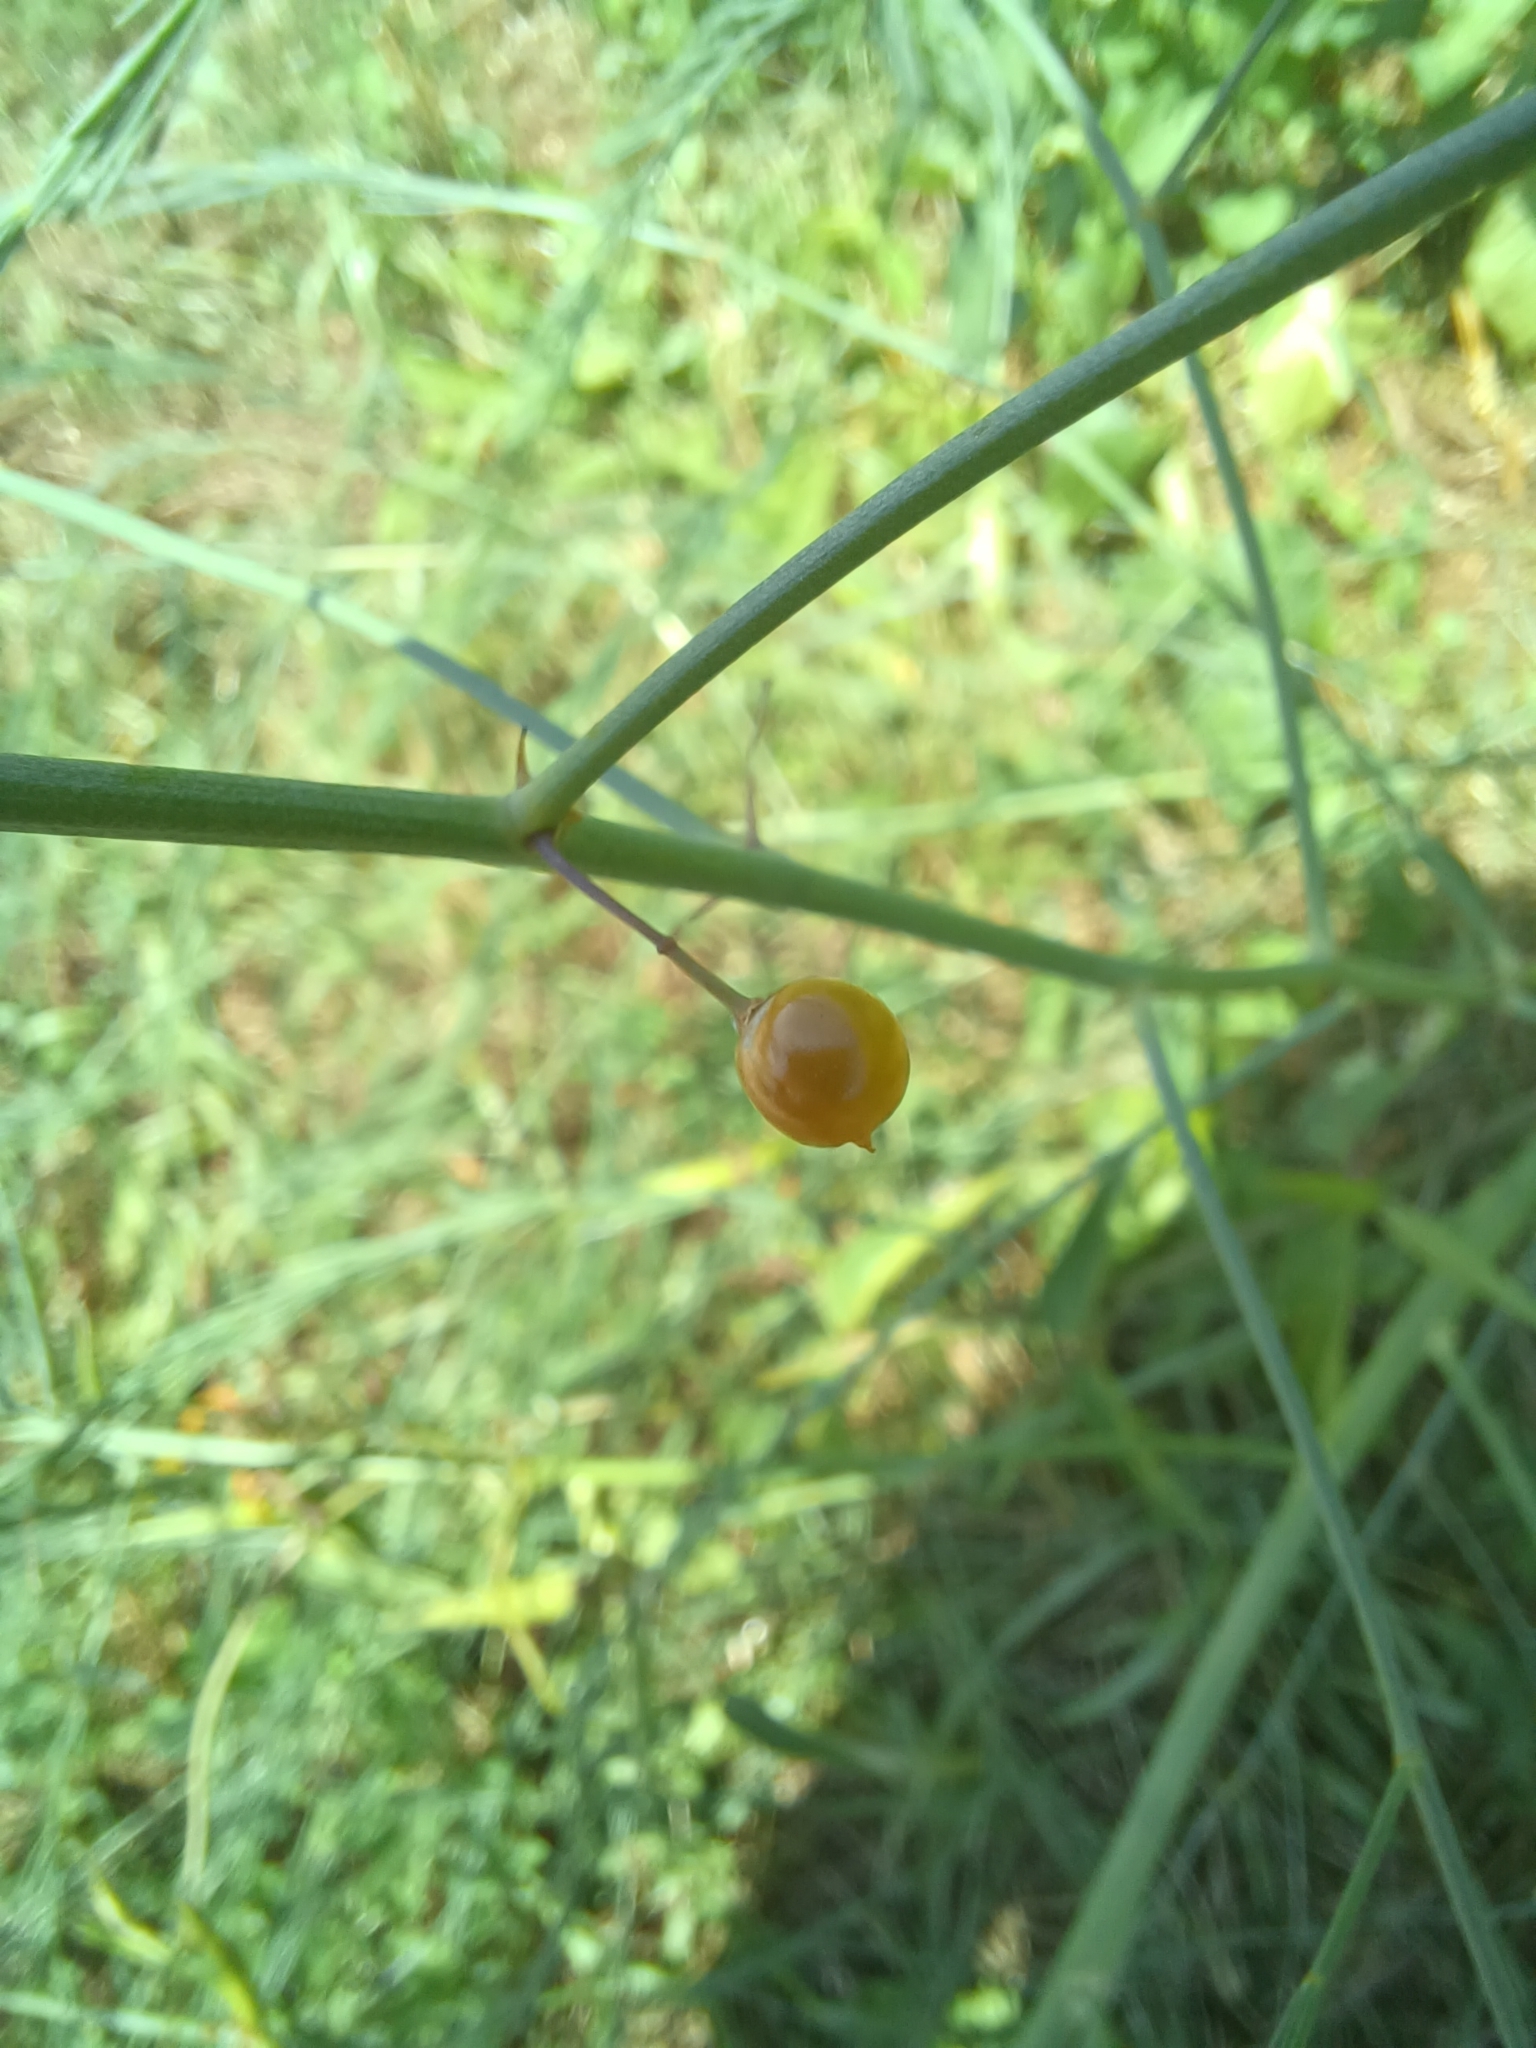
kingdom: Plantae
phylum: Tracheophyta
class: Liliopsida
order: Asparagales
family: Asparagaceae
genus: Asparagus
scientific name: Asparagus officinalis
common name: Garden asparagus
